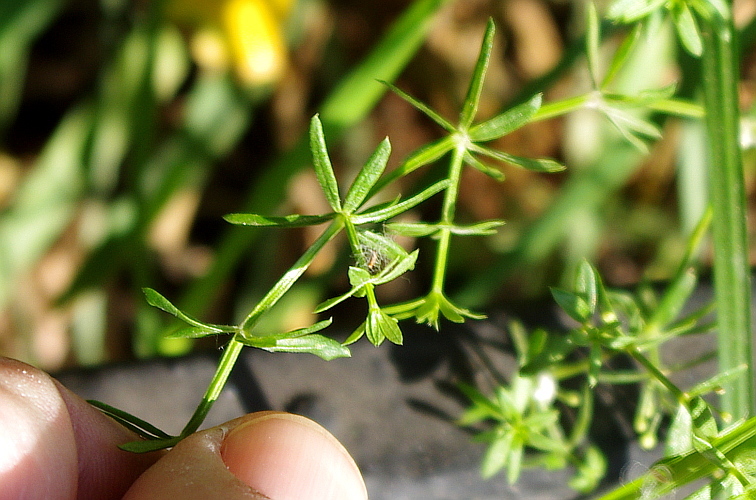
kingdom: Plantae
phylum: Tracheophyta
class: Magnoliopsida
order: Gentianales
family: Rubiaceae
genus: Galium
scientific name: Galium mollugo
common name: Hedge bedstraw
